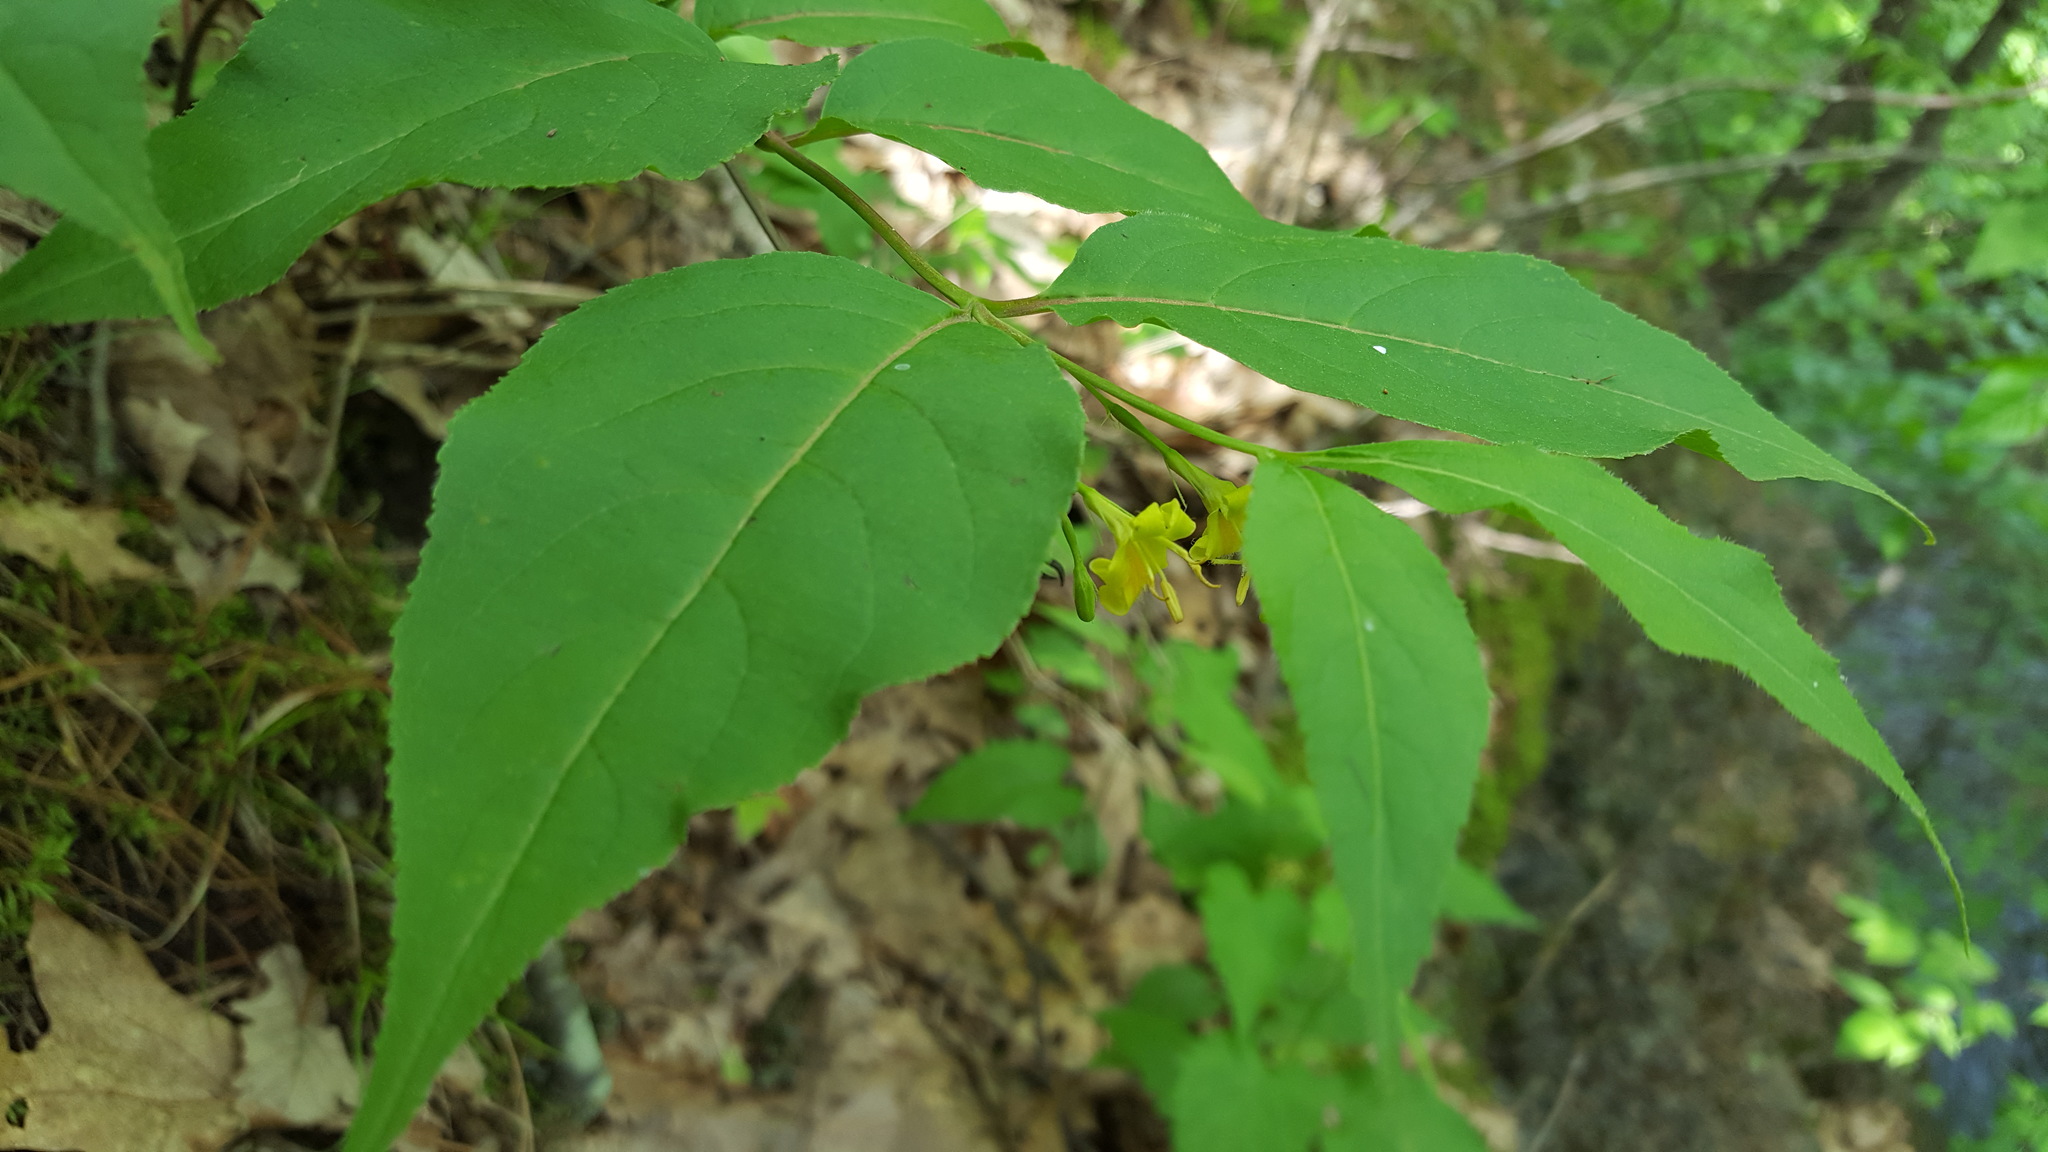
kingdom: Plantae
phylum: Tracheophyta
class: Magnoliopsida
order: Dipsacales
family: Caprifoliaceae
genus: Diervilla
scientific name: Diervilla lonicera
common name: Bush-honeysuckle
